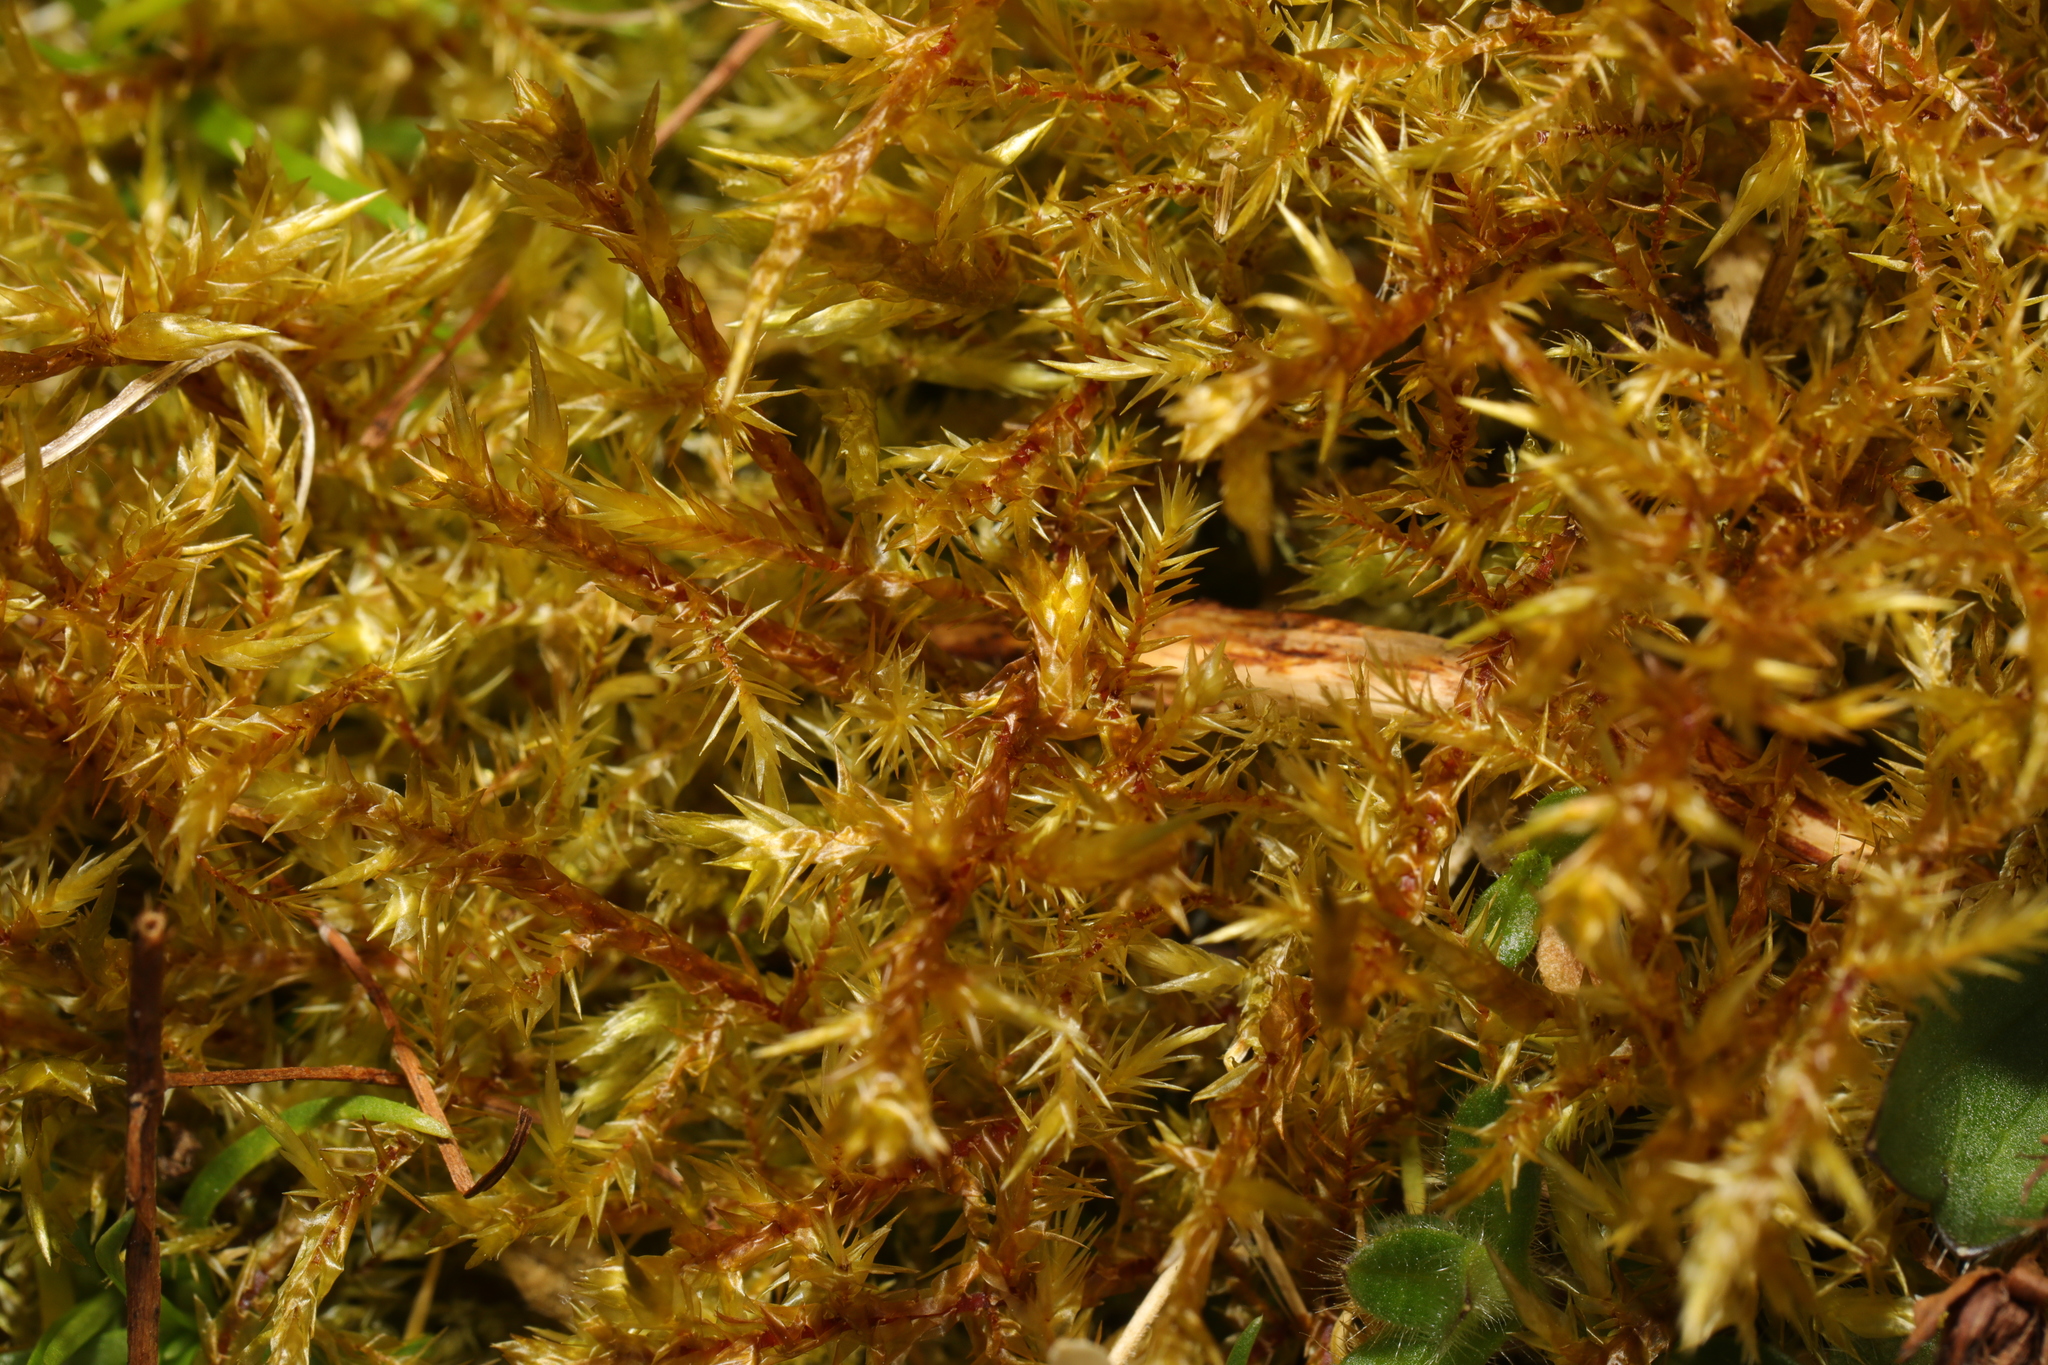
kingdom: Plantae
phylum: Bryophyta
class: Bryopsida
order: Hypnales
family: Pylaisiaceae
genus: Calliergonella
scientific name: Calliergonella cuspidata
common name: Common large wetland moss
